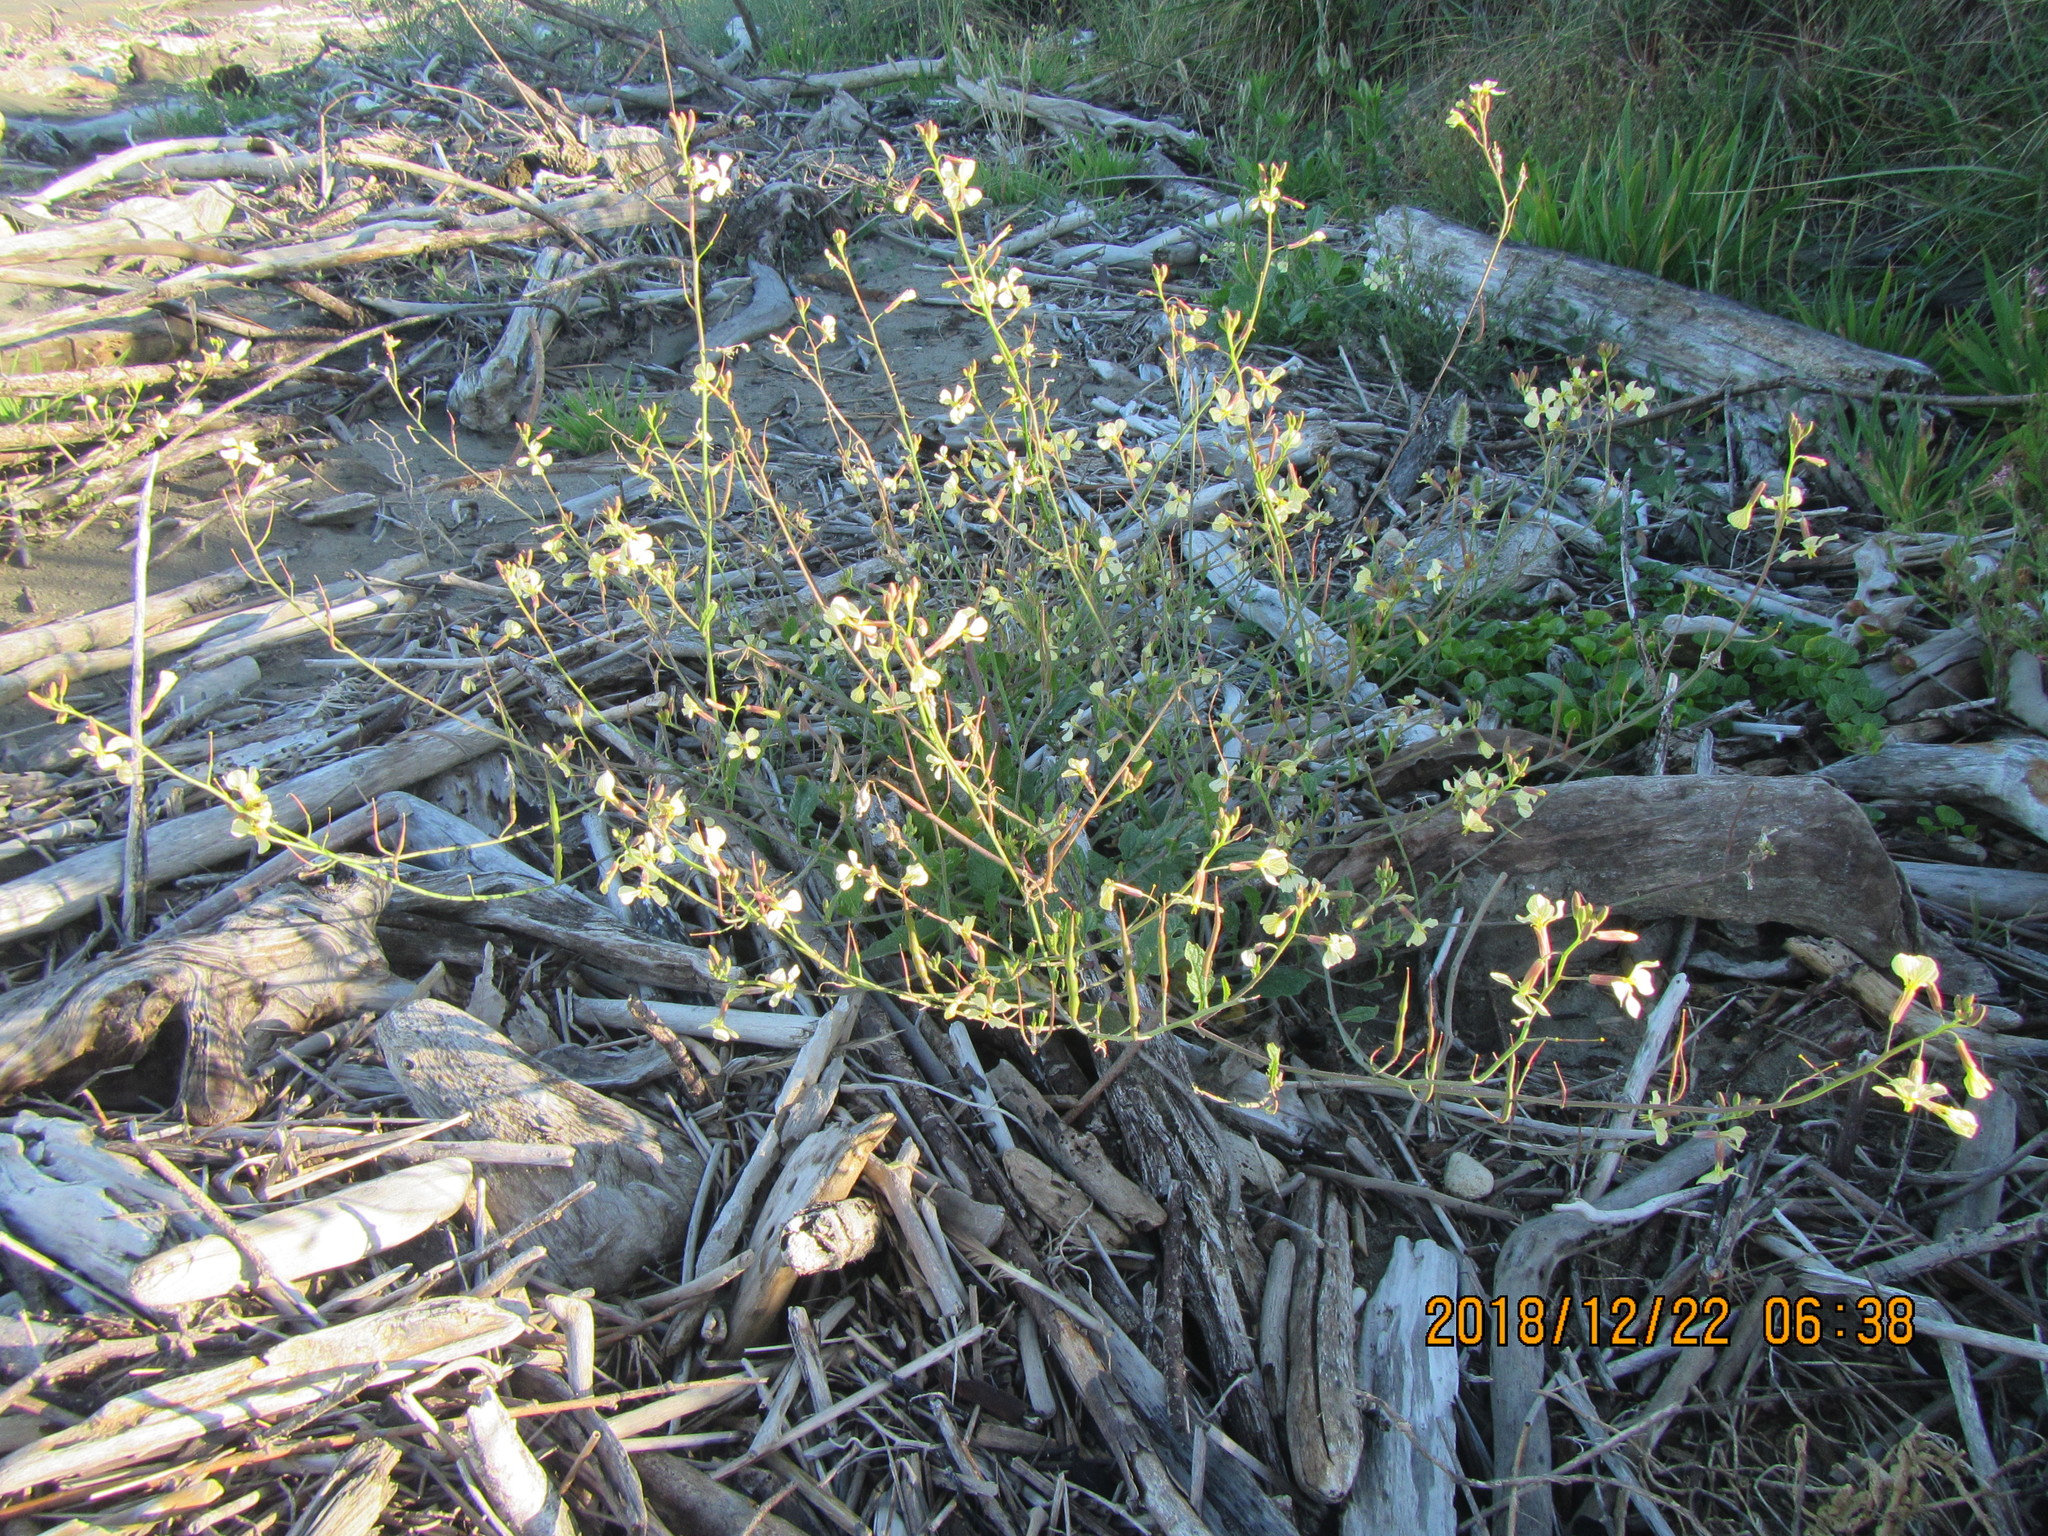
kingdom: Plantae
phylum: Tracheophyta
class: Magnoliopsida
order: Brassicales
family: Brassicaceae
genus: Raphanus
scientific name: Raphanus raphanistrum
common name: Wild radish
